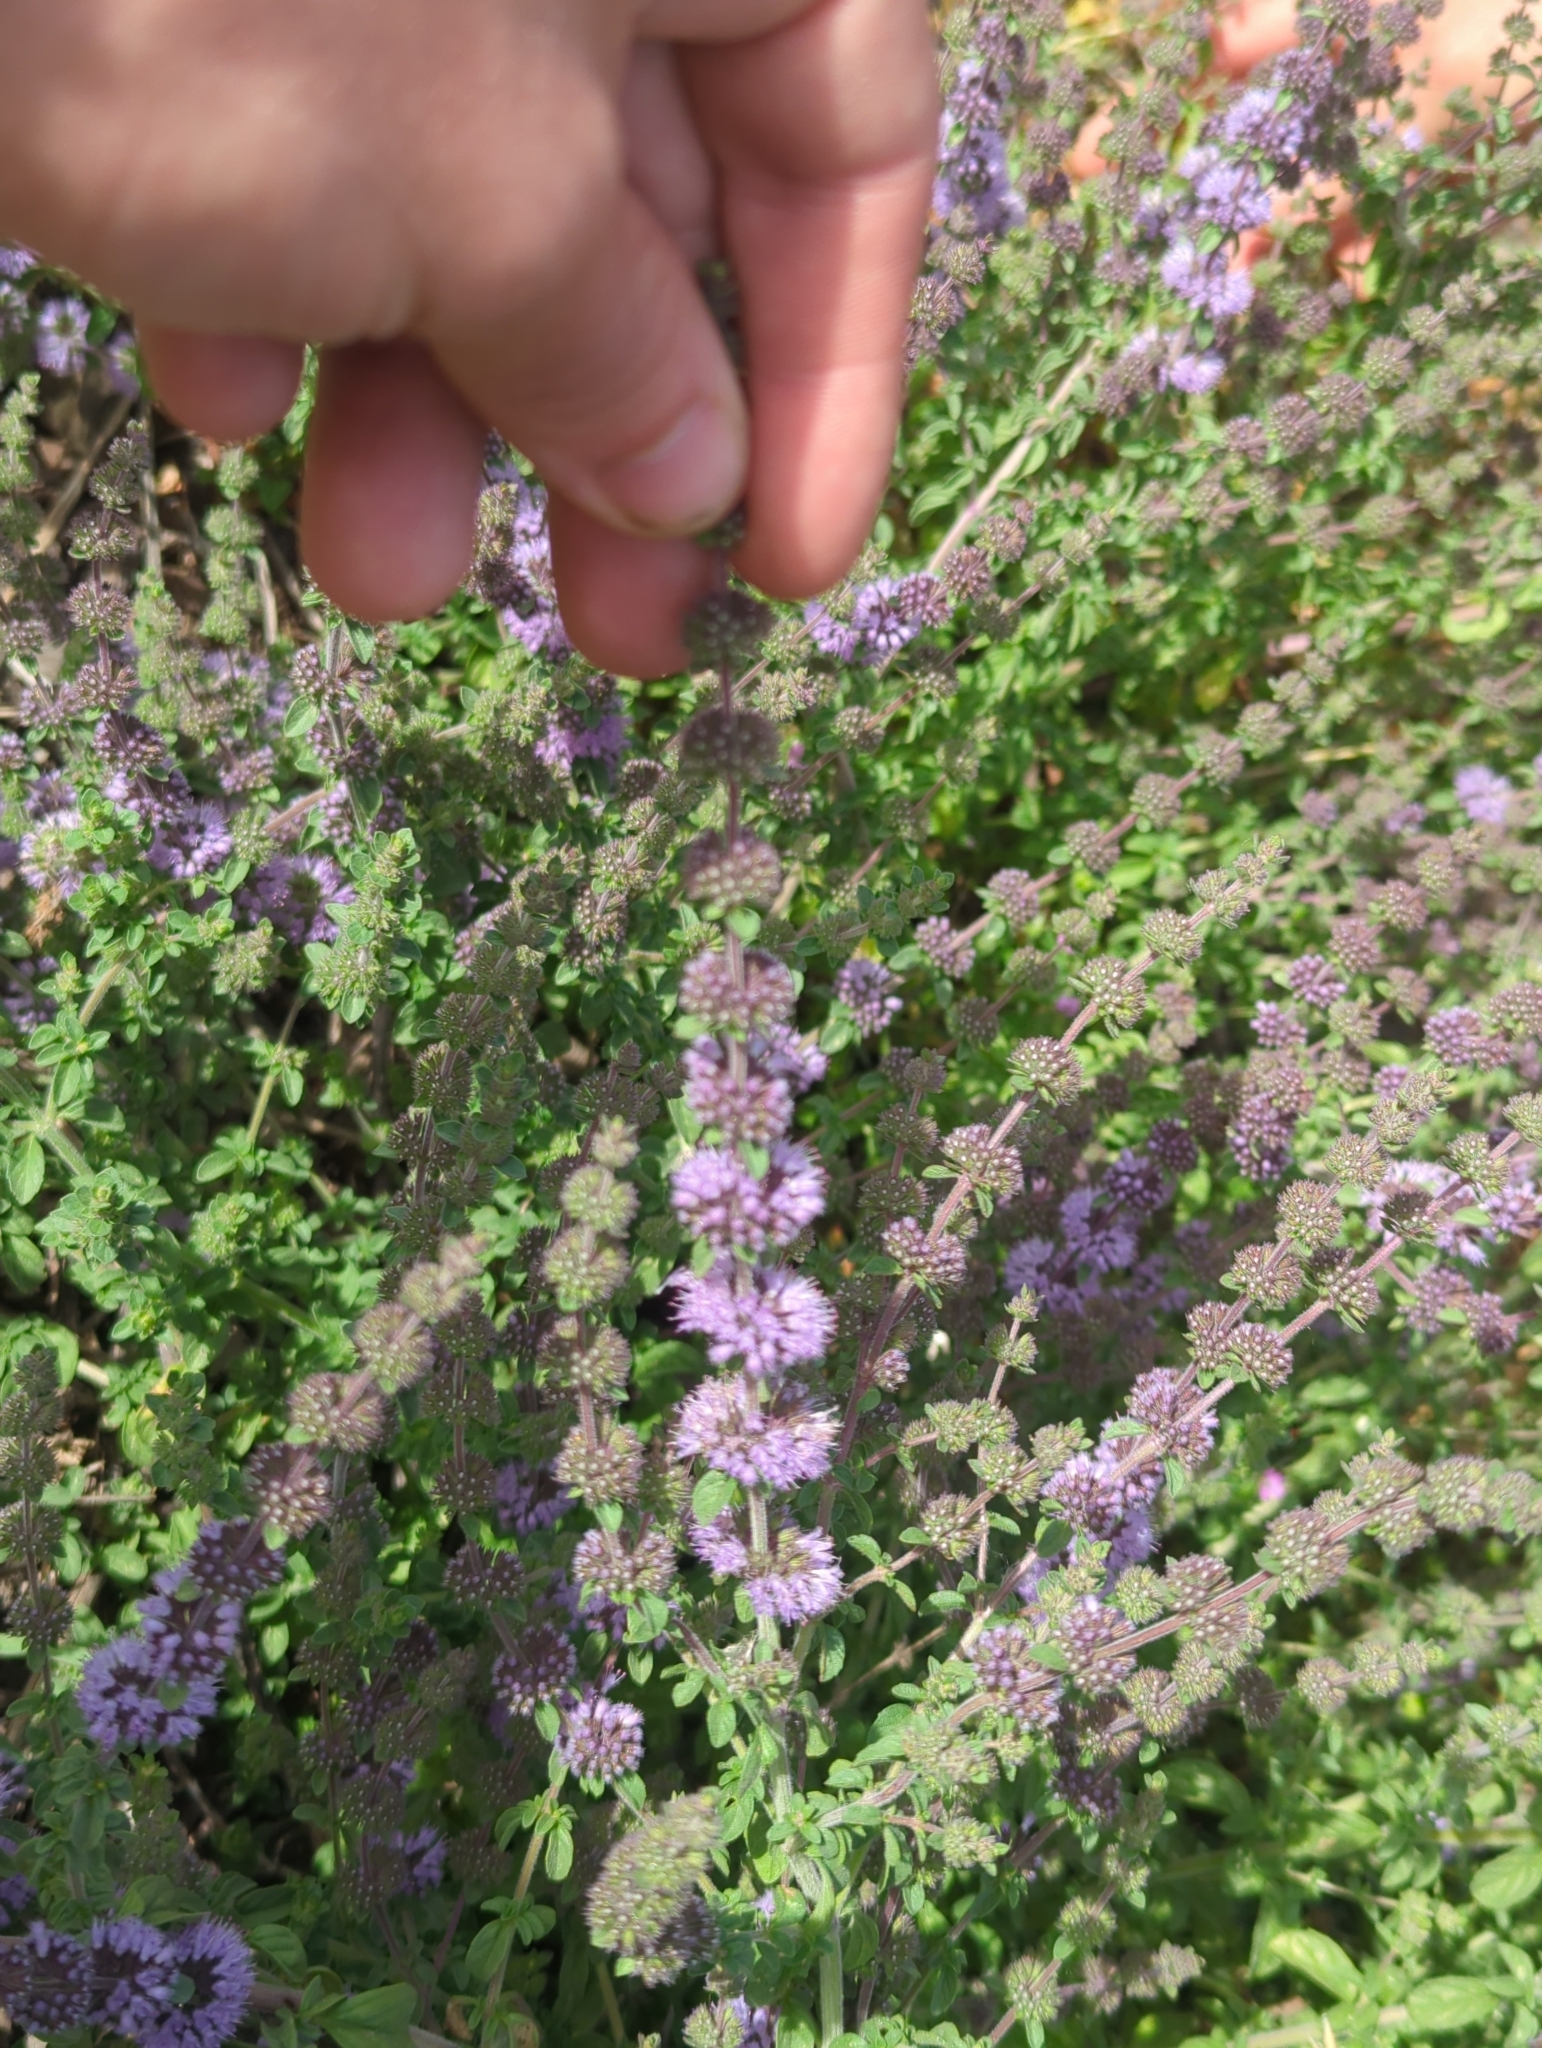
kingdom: Plantae
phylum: Tracheophyta
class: Magnoliopsida
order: Lamiales
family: Lamiaceae
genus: Mentha
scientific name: Mentha pulegium
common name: Pennyroyal
